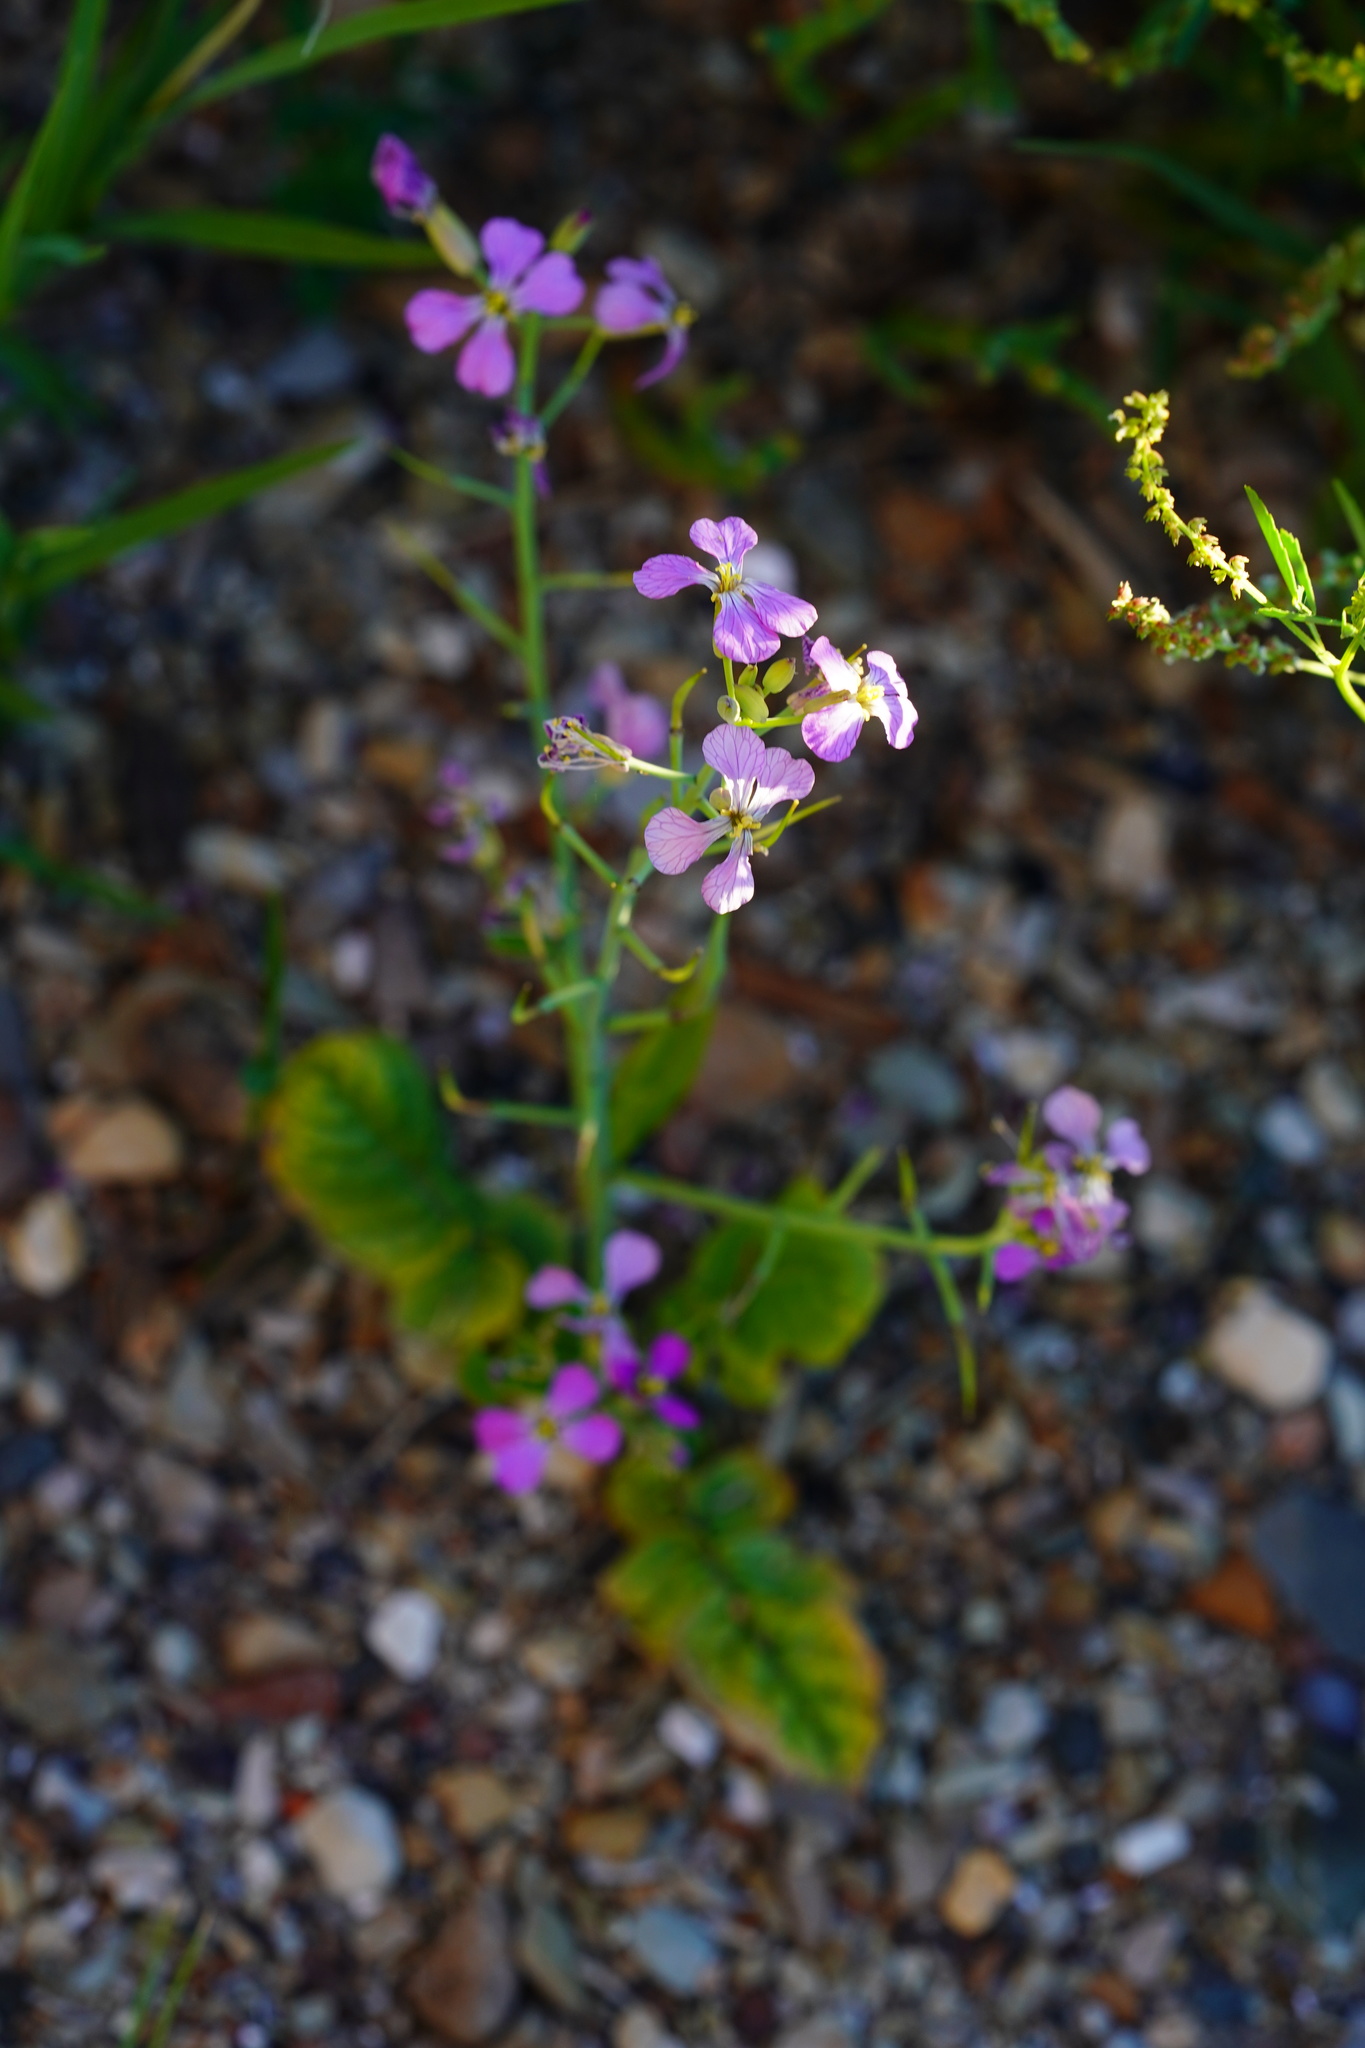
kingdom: Plantae
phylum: Tracheophyta
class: Magnoliopsida
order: Brassicales
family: Brassicaceae
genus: Raphanus
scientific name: Raphanus sativus
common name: Cultivated radish
